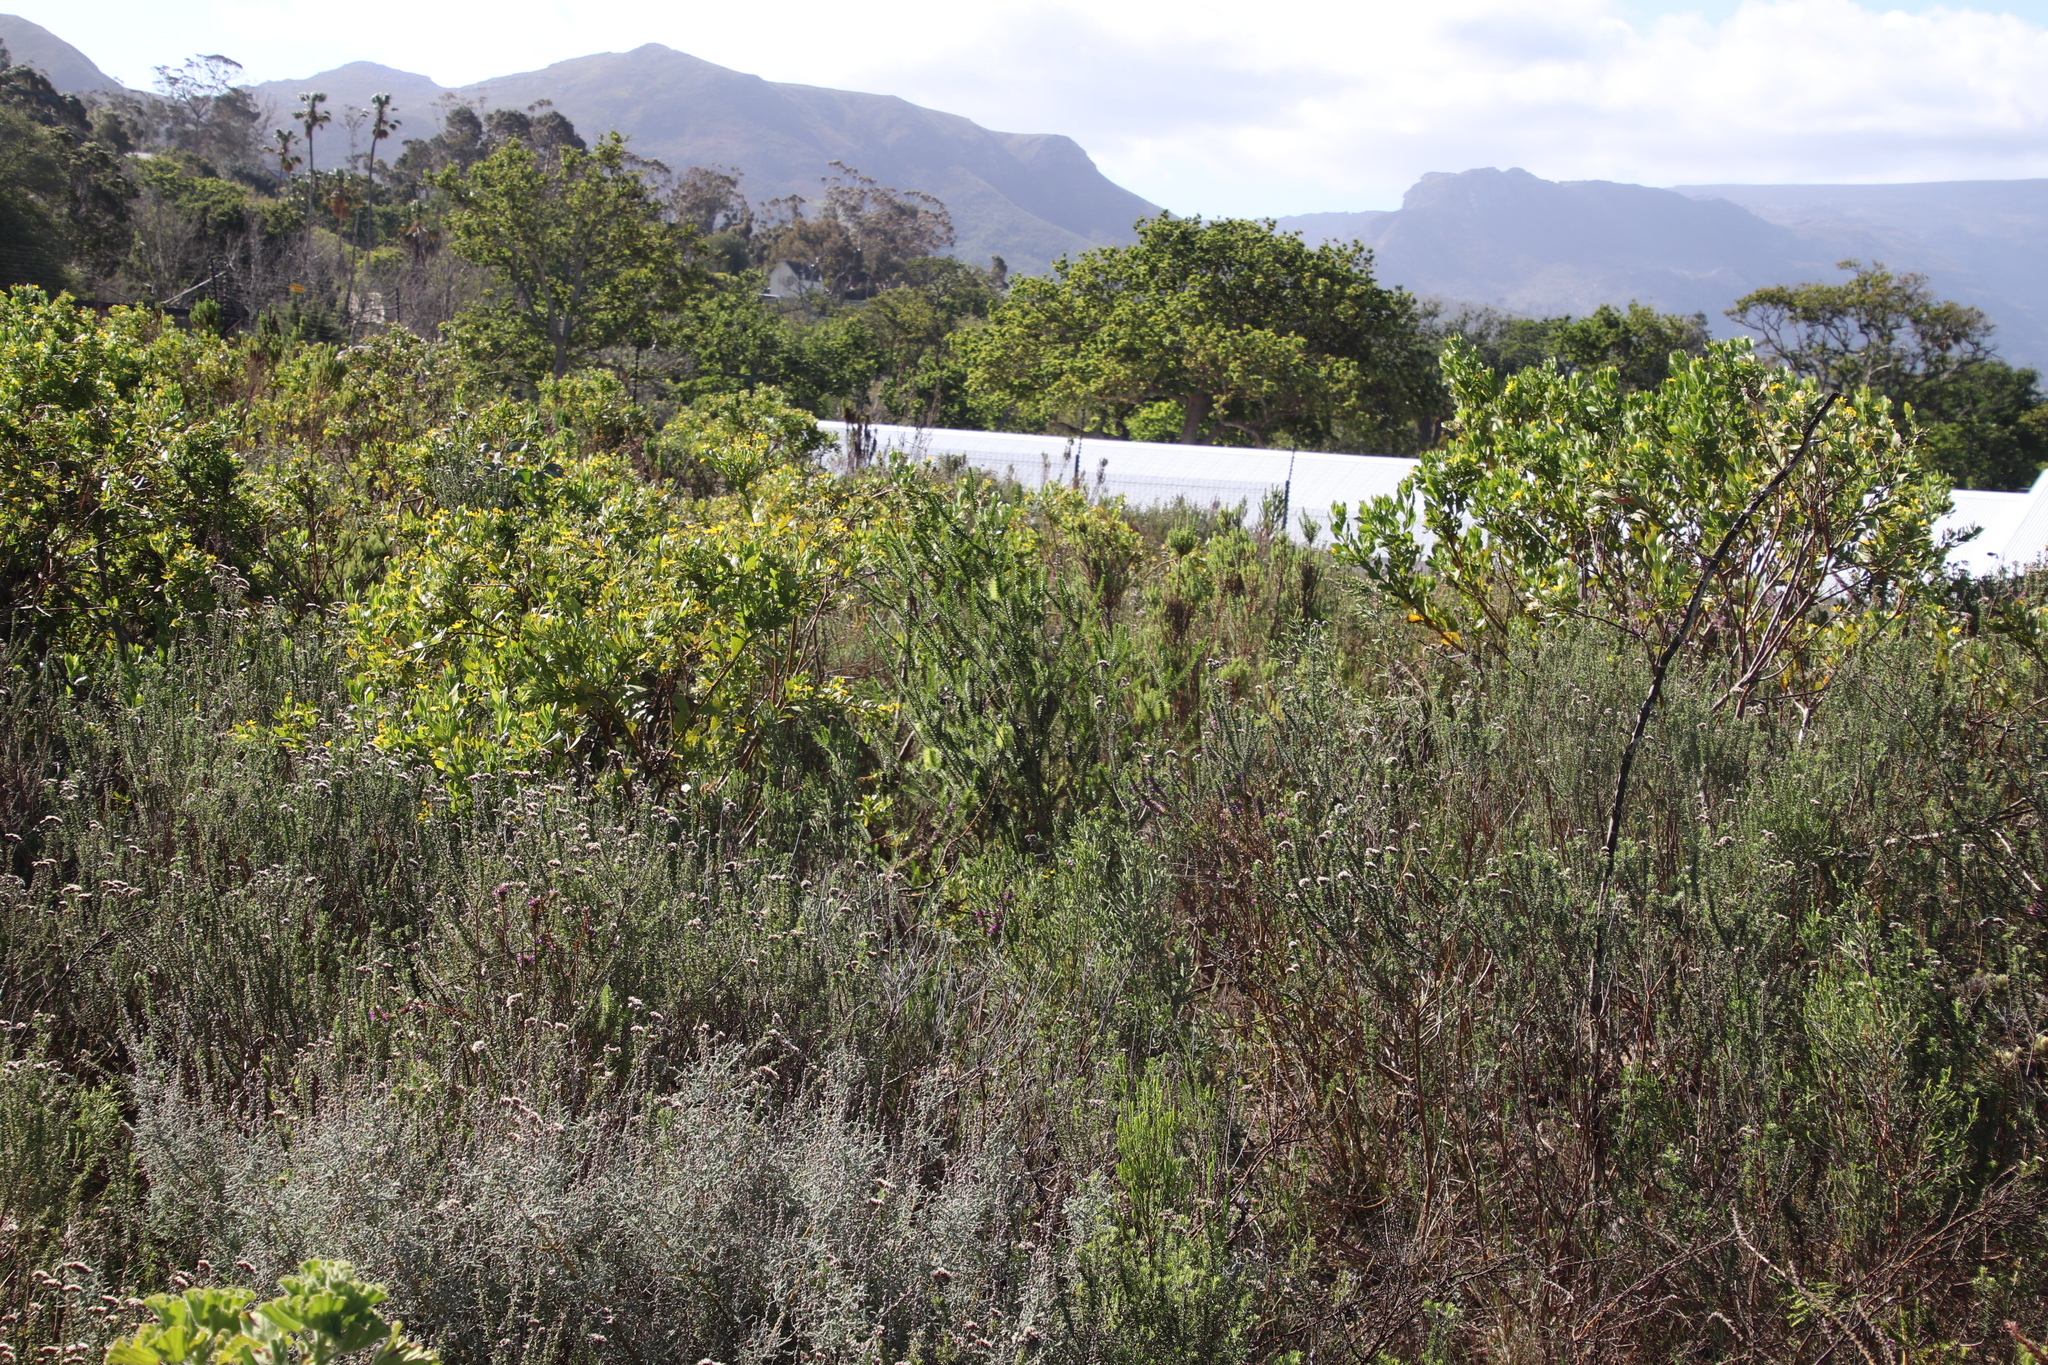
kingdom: Plantae
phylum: Tracheophyta
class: Magnoliopsida
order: Myrtales
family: Myrtaceae
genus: Melaleuca
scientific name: Melaleuca diosmifolia
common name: Green honey myrtle
